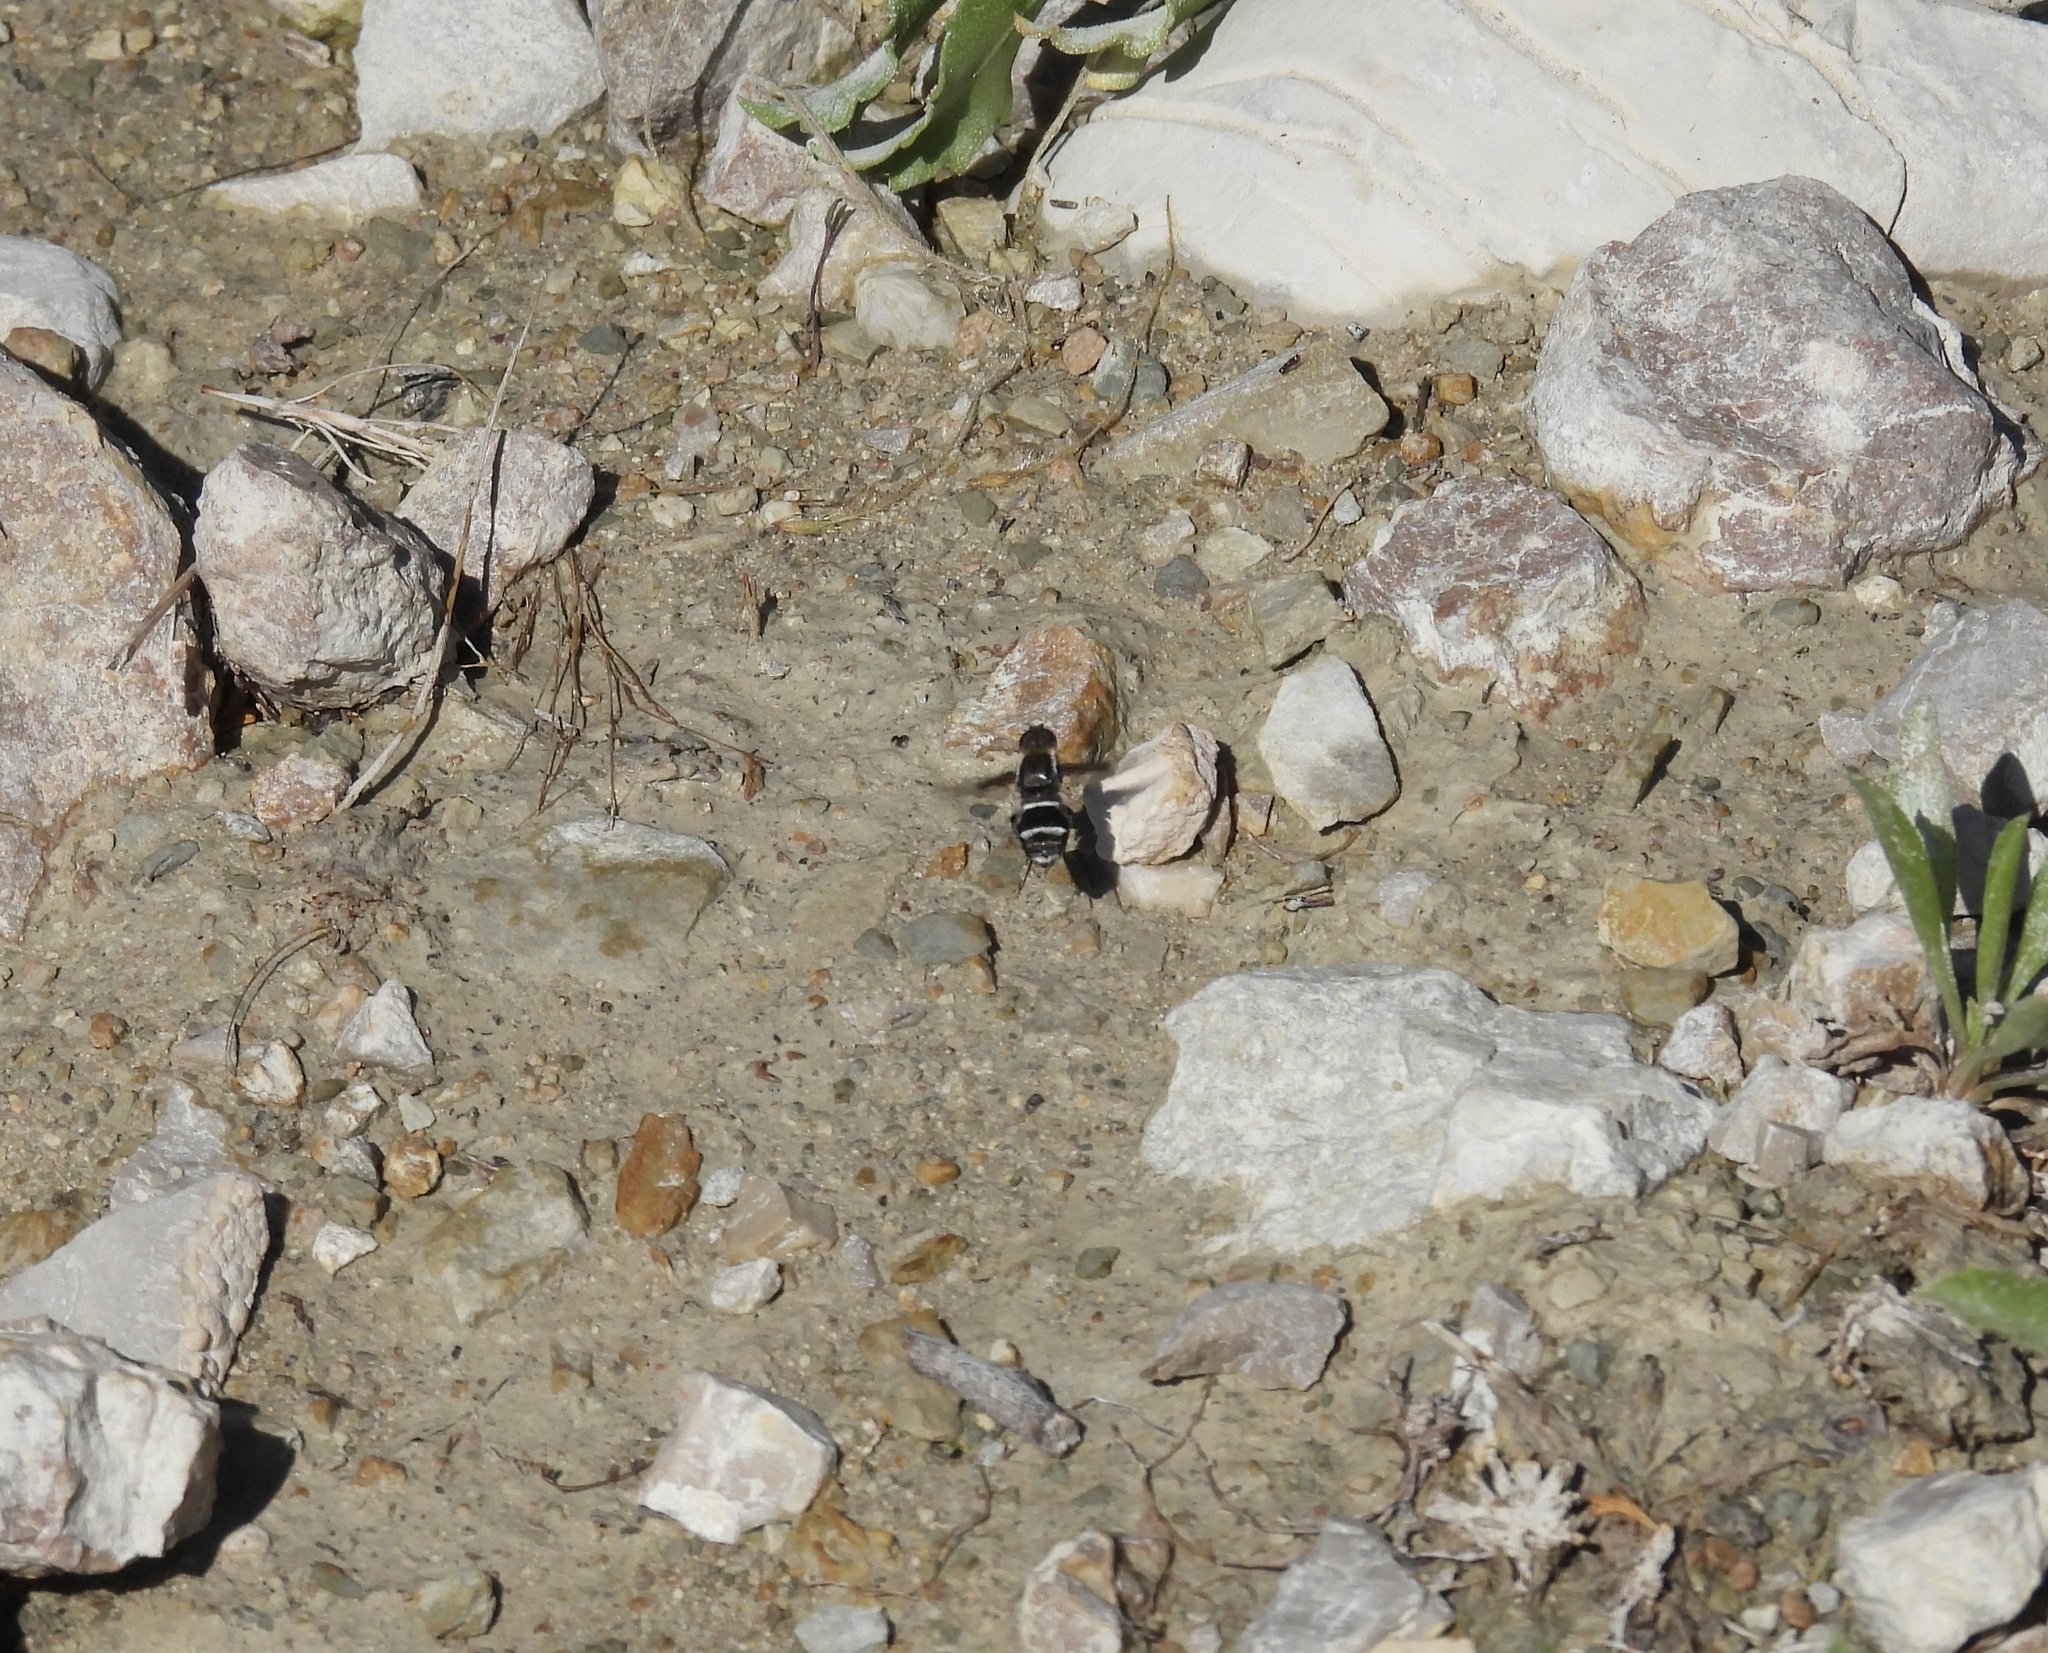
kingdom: Animalia
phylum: Arthropoda
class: Insecta
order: Diptera
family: Bombyliidae
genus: Hemipenthes
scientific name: Hemipenthes lepidotus
